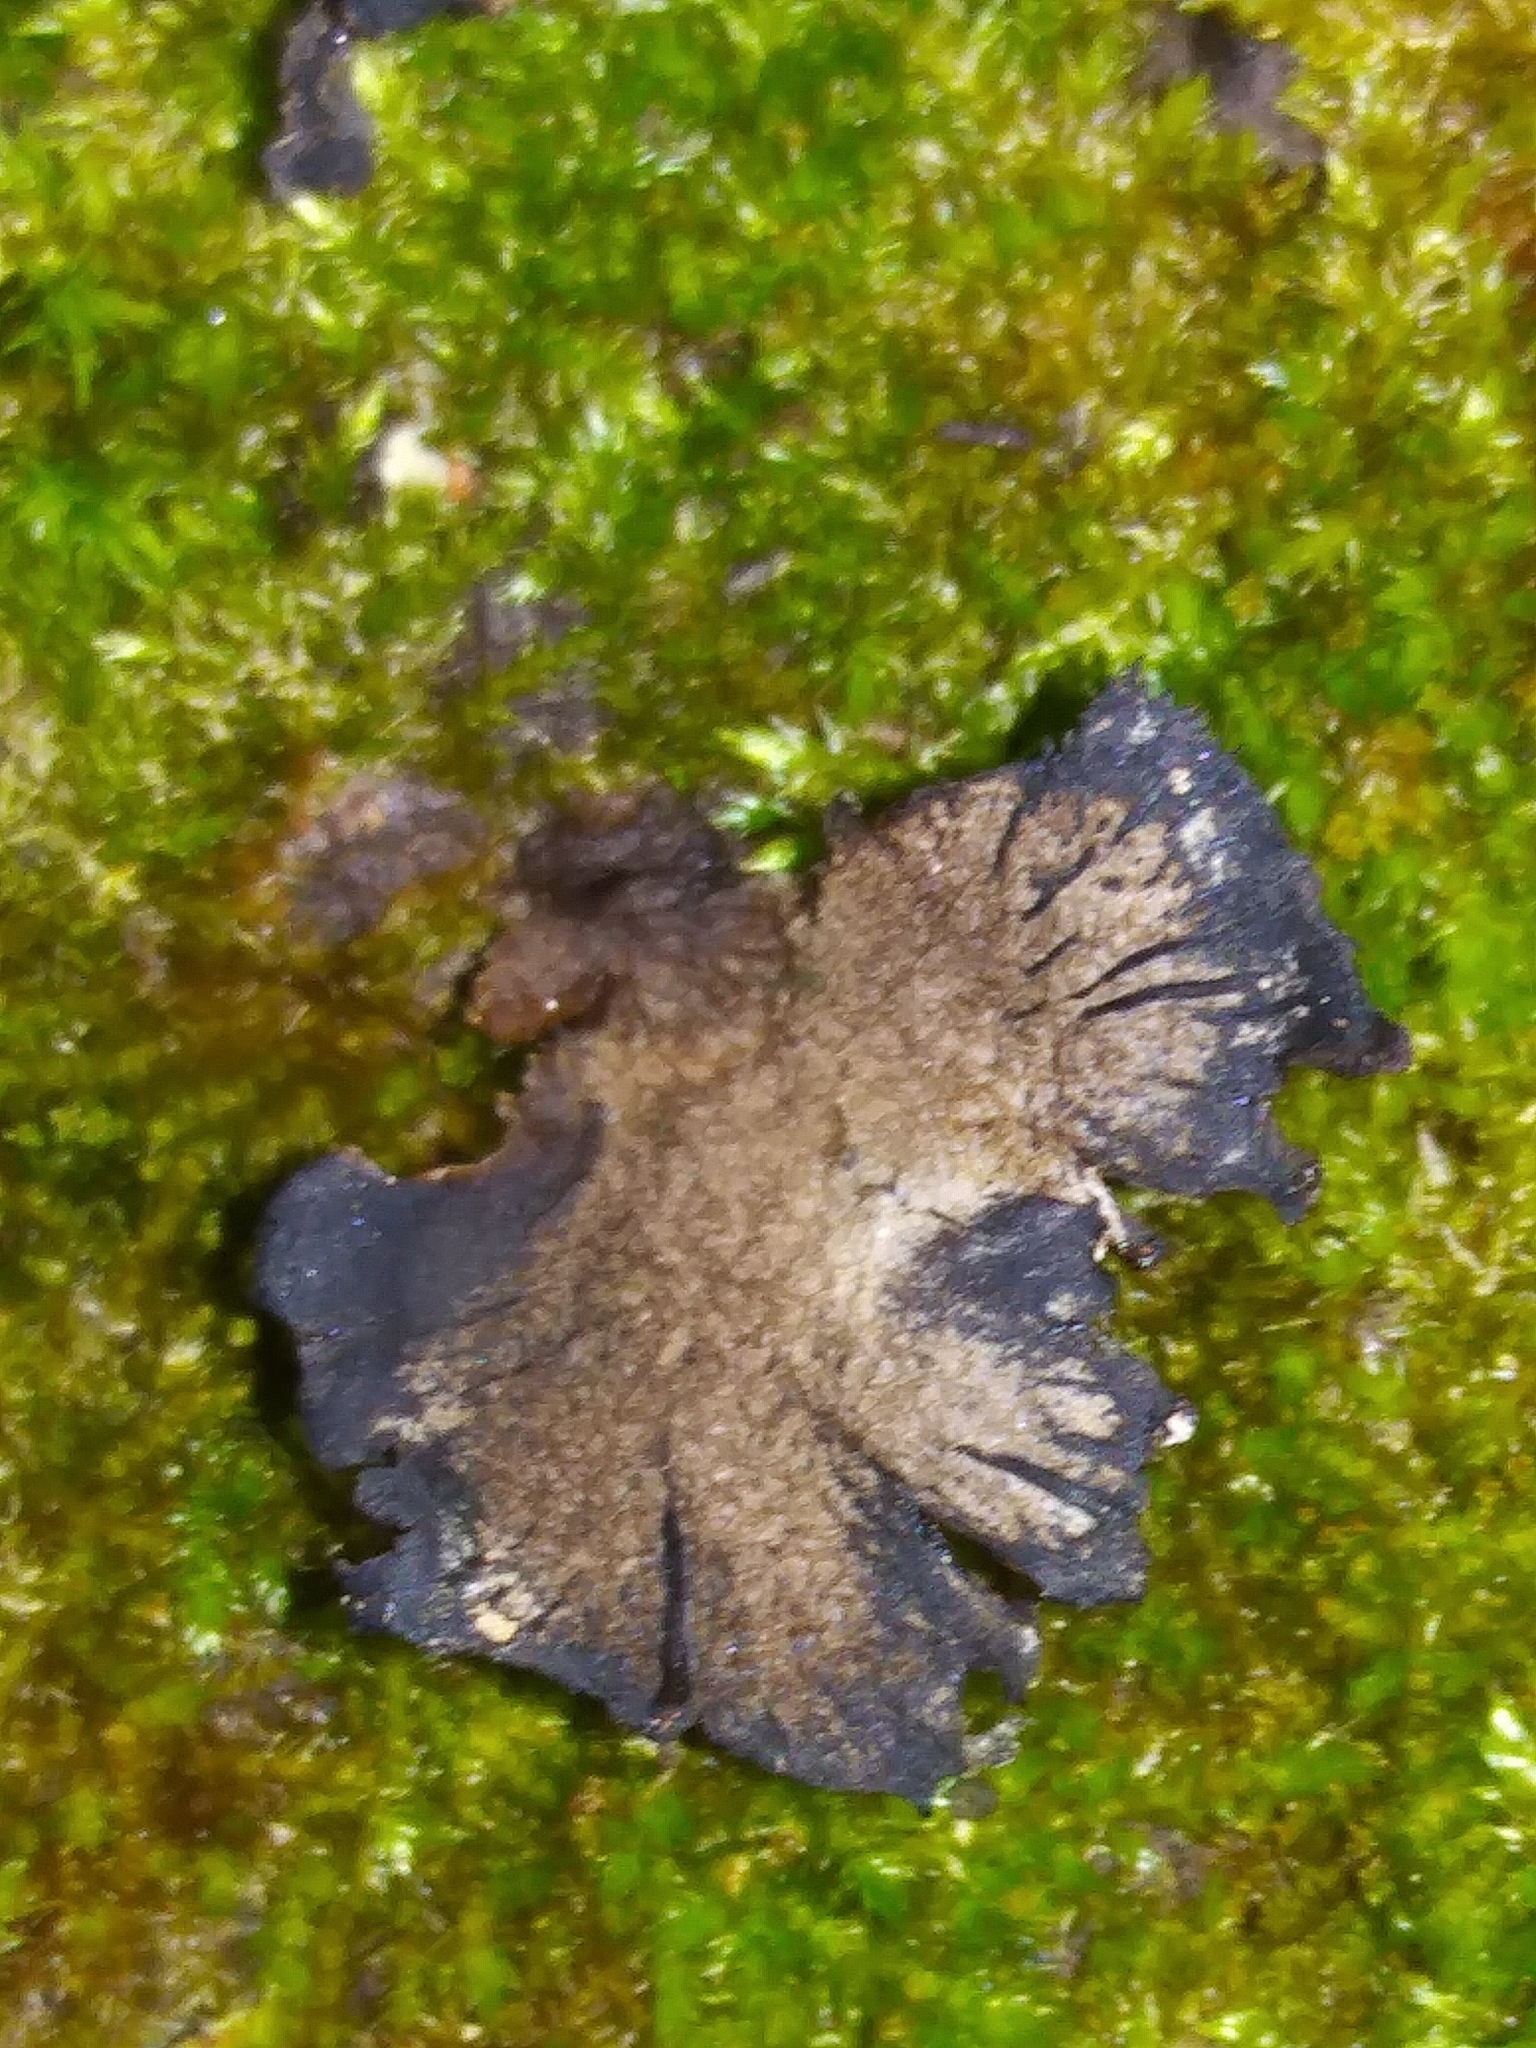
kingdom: Fungi
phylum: Basidiomycota
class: Agaricomycetes
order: Agaricales
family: Pleurotaceae
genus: Resupinatus
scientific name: Resupinatus alboniger
